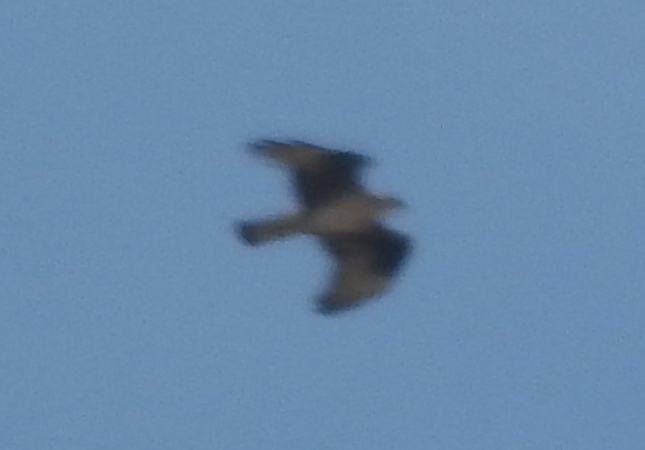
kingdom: Animalia
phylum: Chordata
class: Aves
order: Accipitriformes
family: Accipitridae
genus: Aquila
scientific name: Aquila fasciata
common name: Bonelli's eagle
